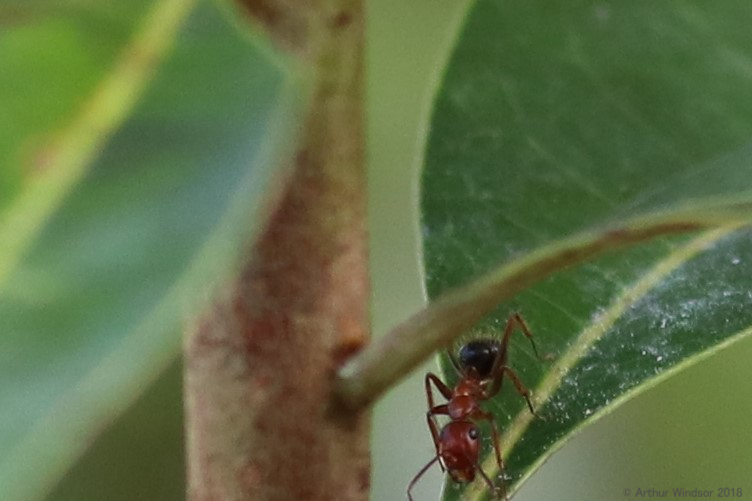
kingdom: Animalia
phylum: Arthropoda
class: Insecta
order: Hymenoptera
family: Formicidae
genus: Camponotus
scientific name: Camponotus floridanus
